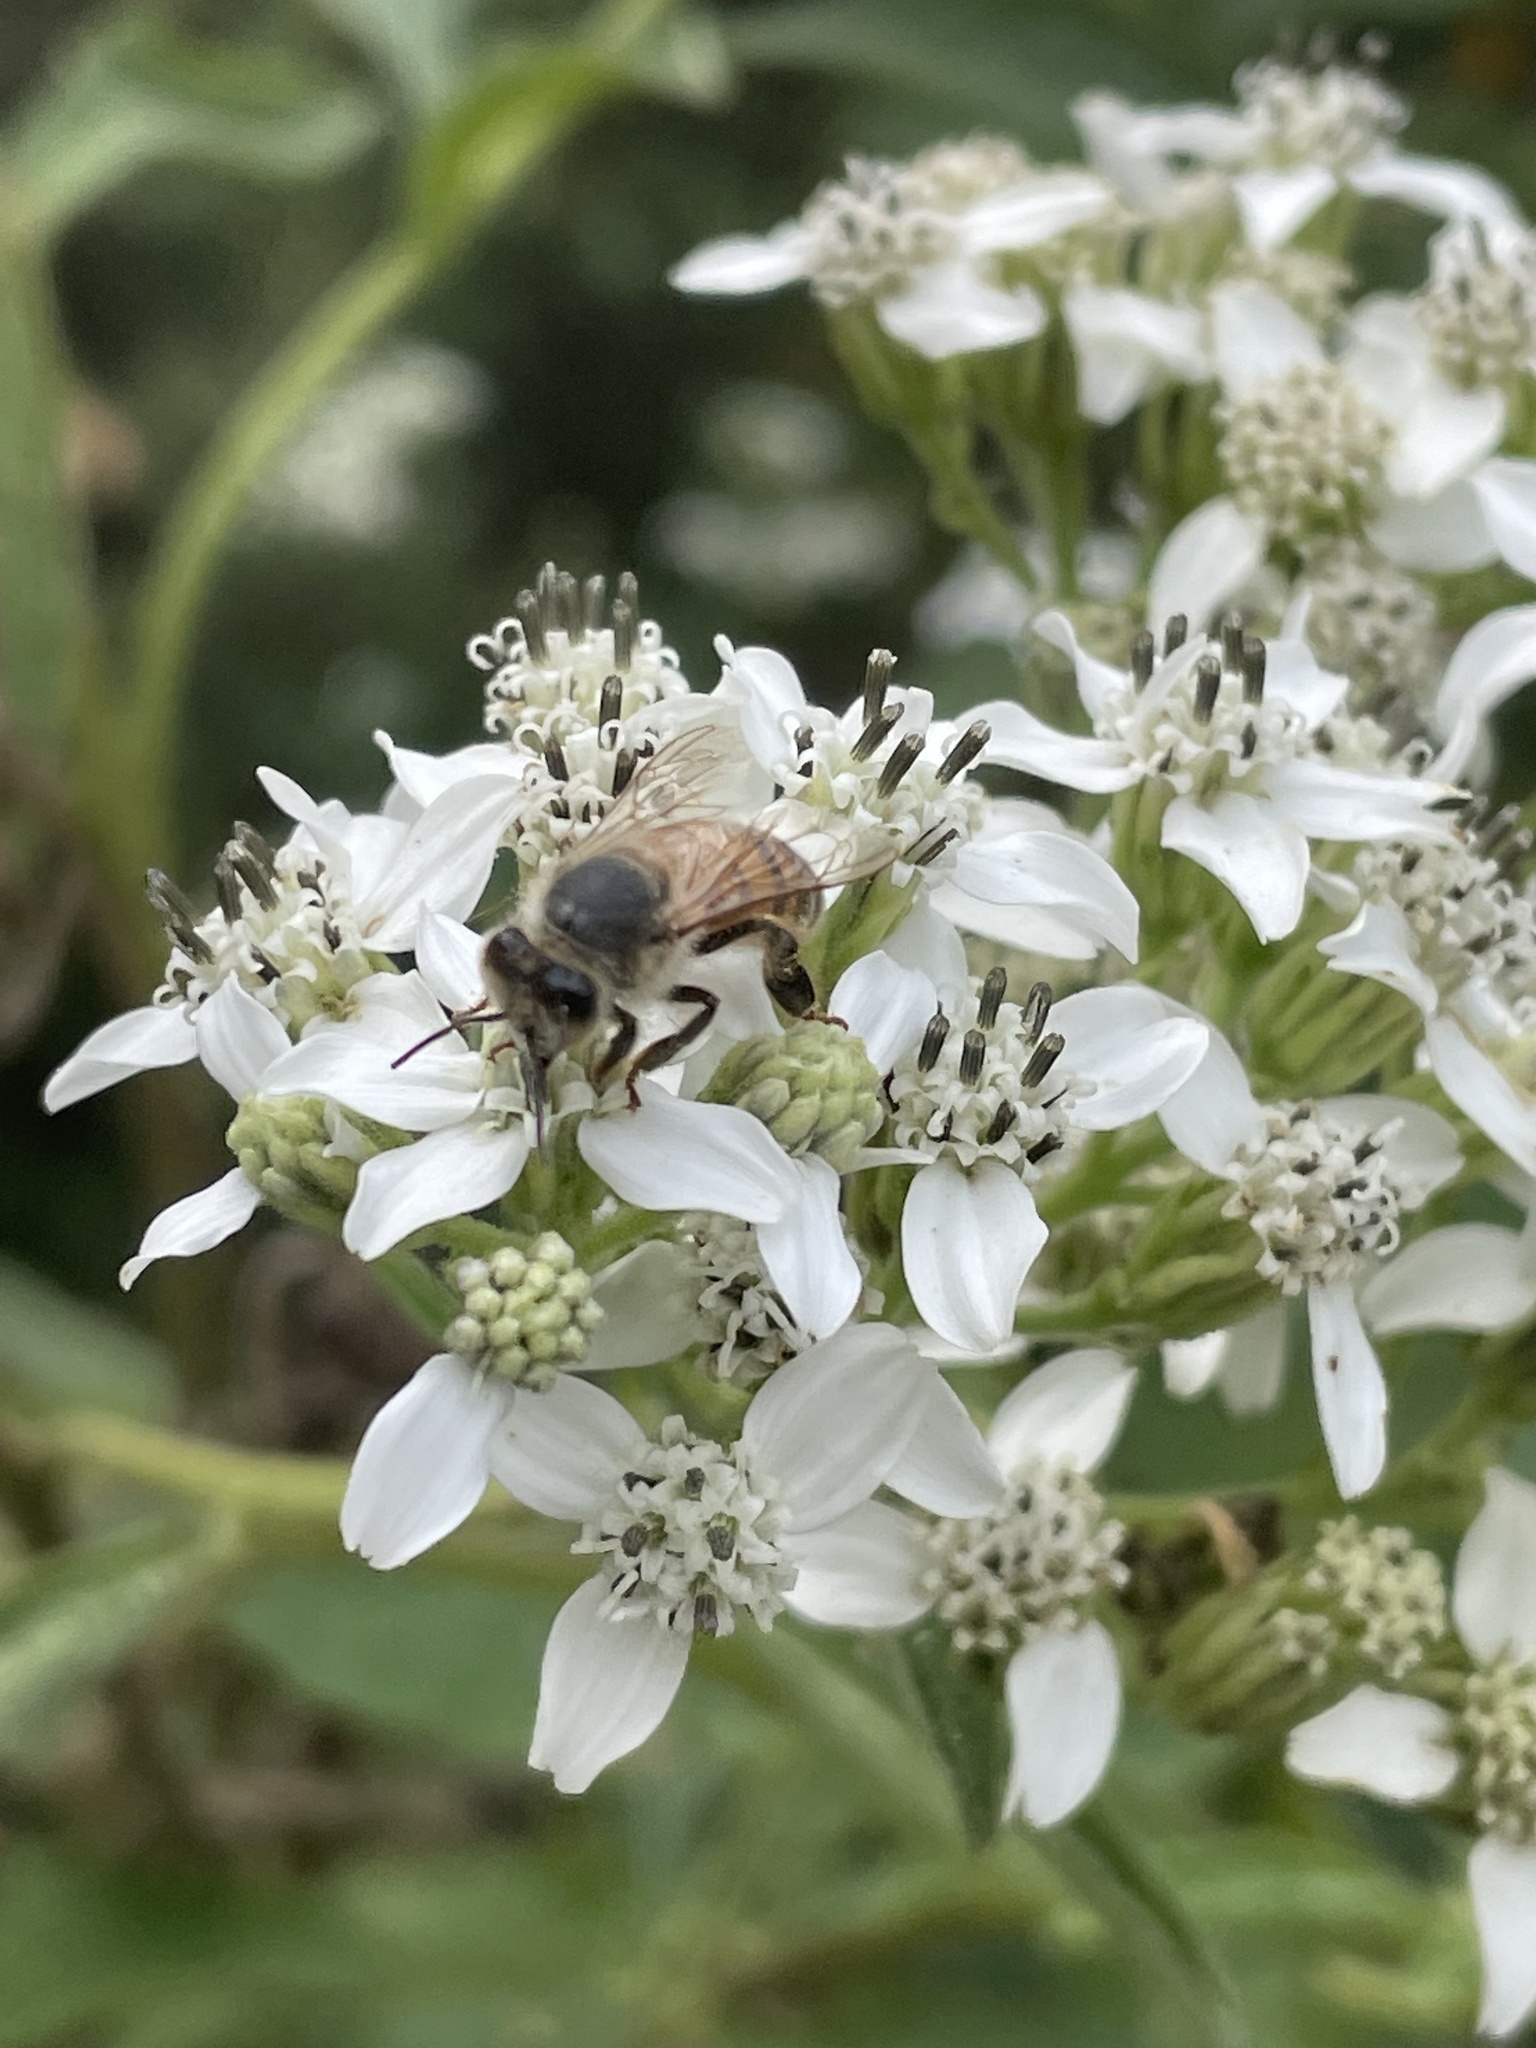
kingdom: Plantae
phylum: Tracheophyta
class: Magnoliopsida
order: Asterales
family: Asteraceae
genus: Verbesina
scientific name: Verbesina virginica
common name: Frostweed
